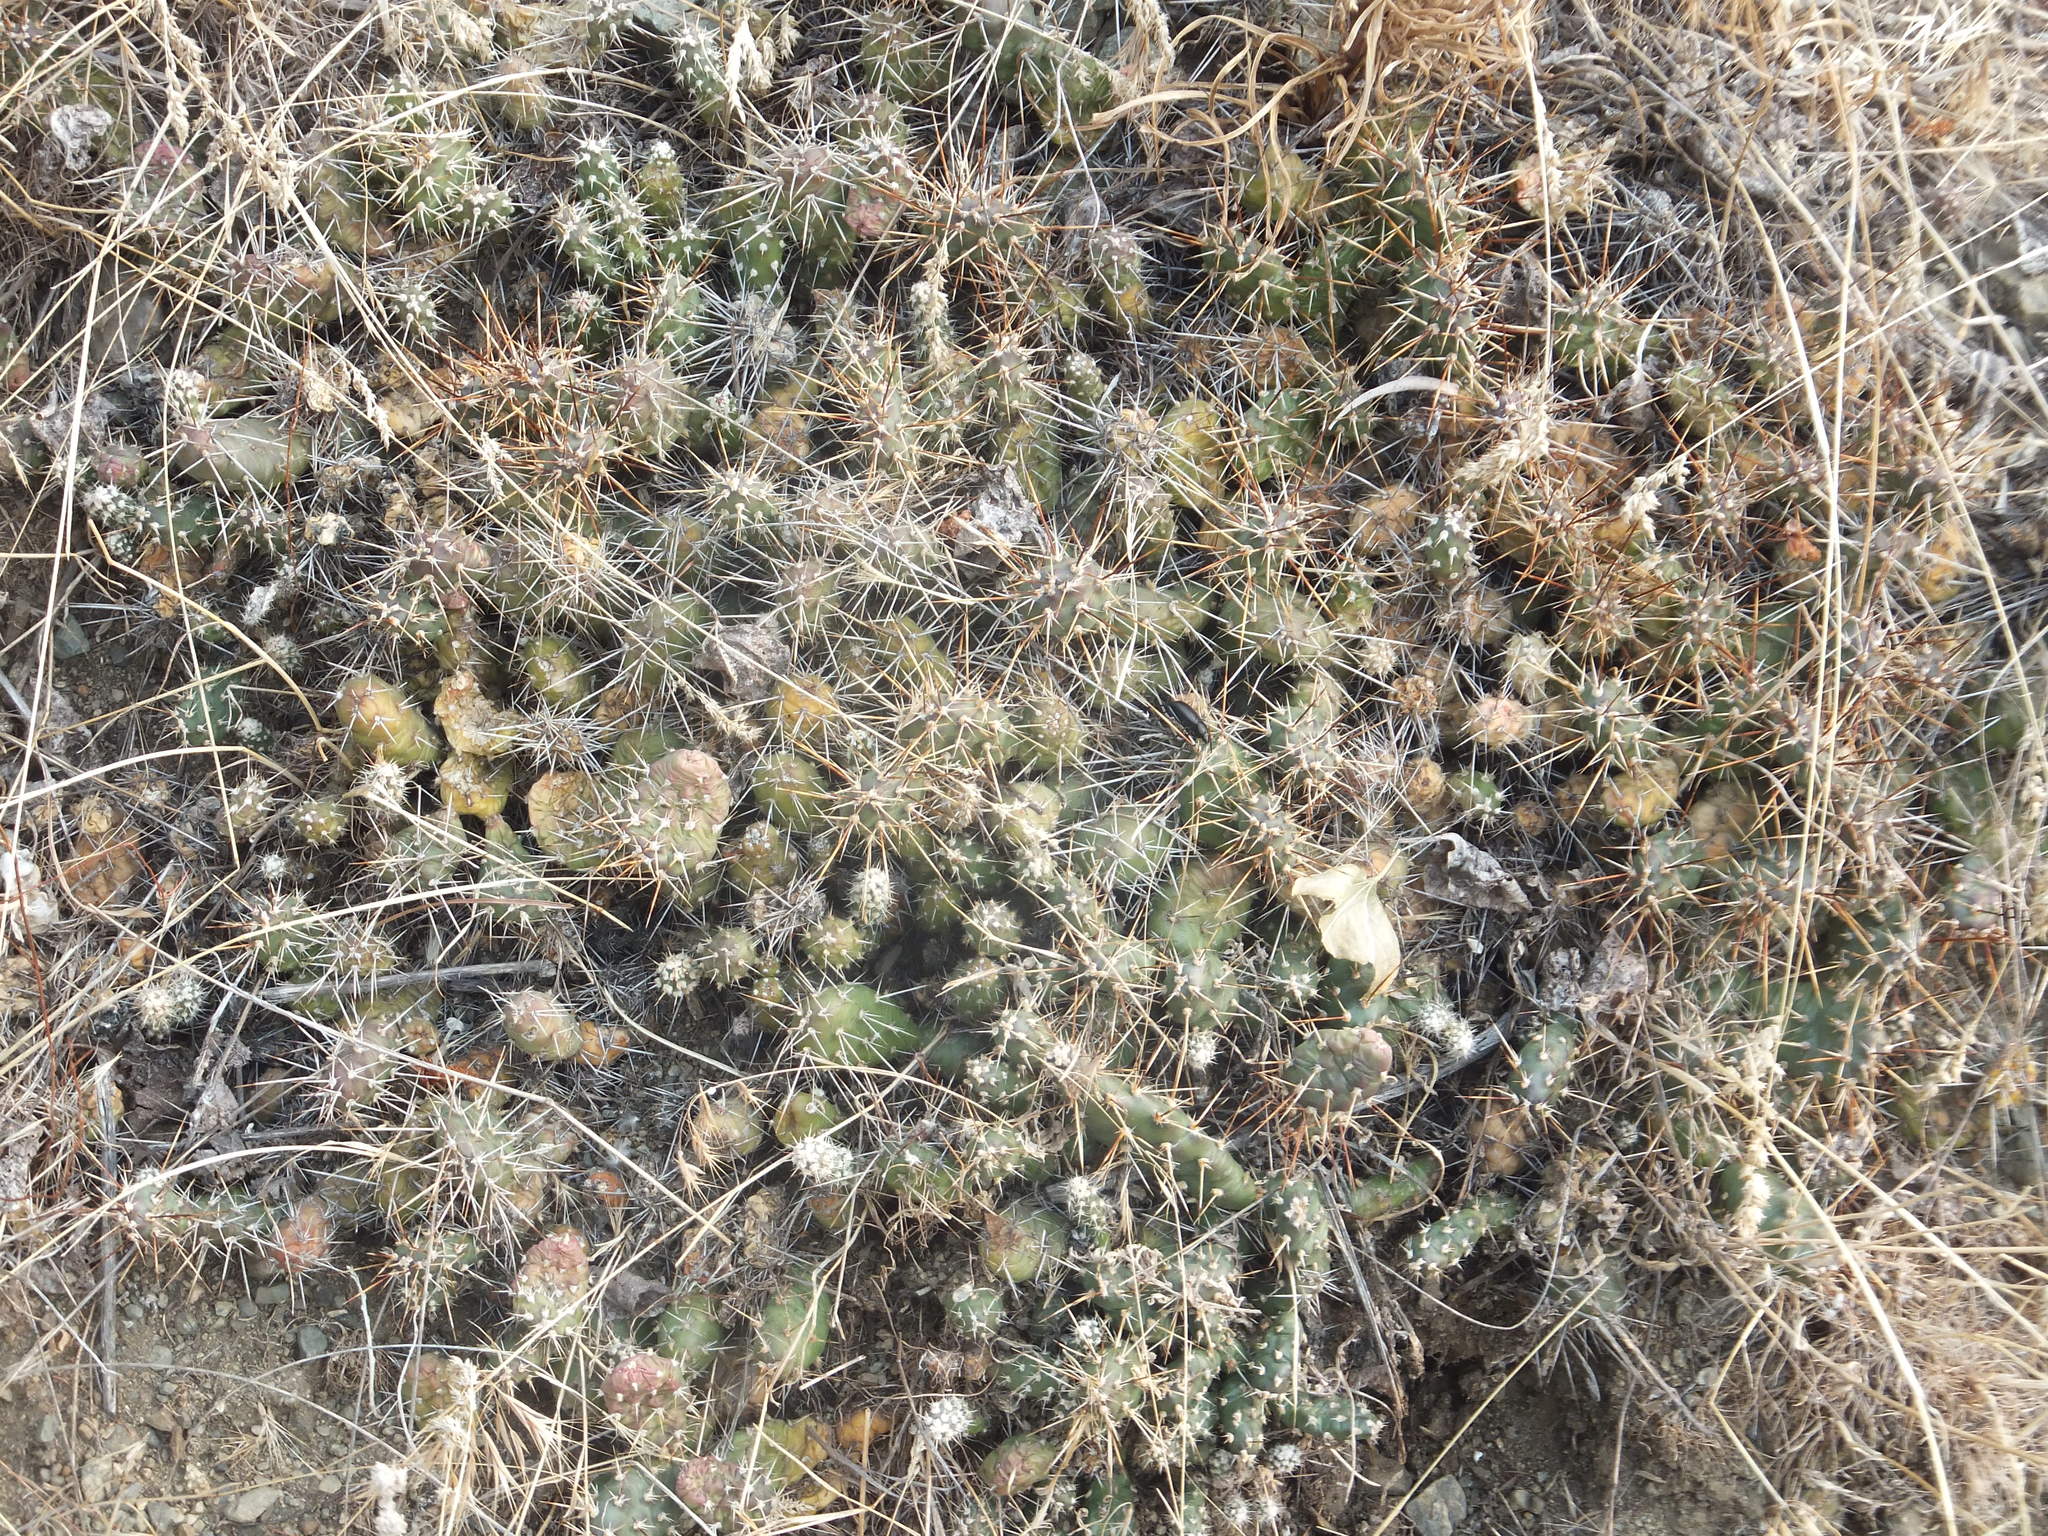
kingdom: Plantae
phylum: Tracheophyta
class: Magnoliopsida
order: Caryophyllales
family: Cactaceae
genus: Opuntia
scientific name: Opuntia fragilis
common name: Brittle cactus
